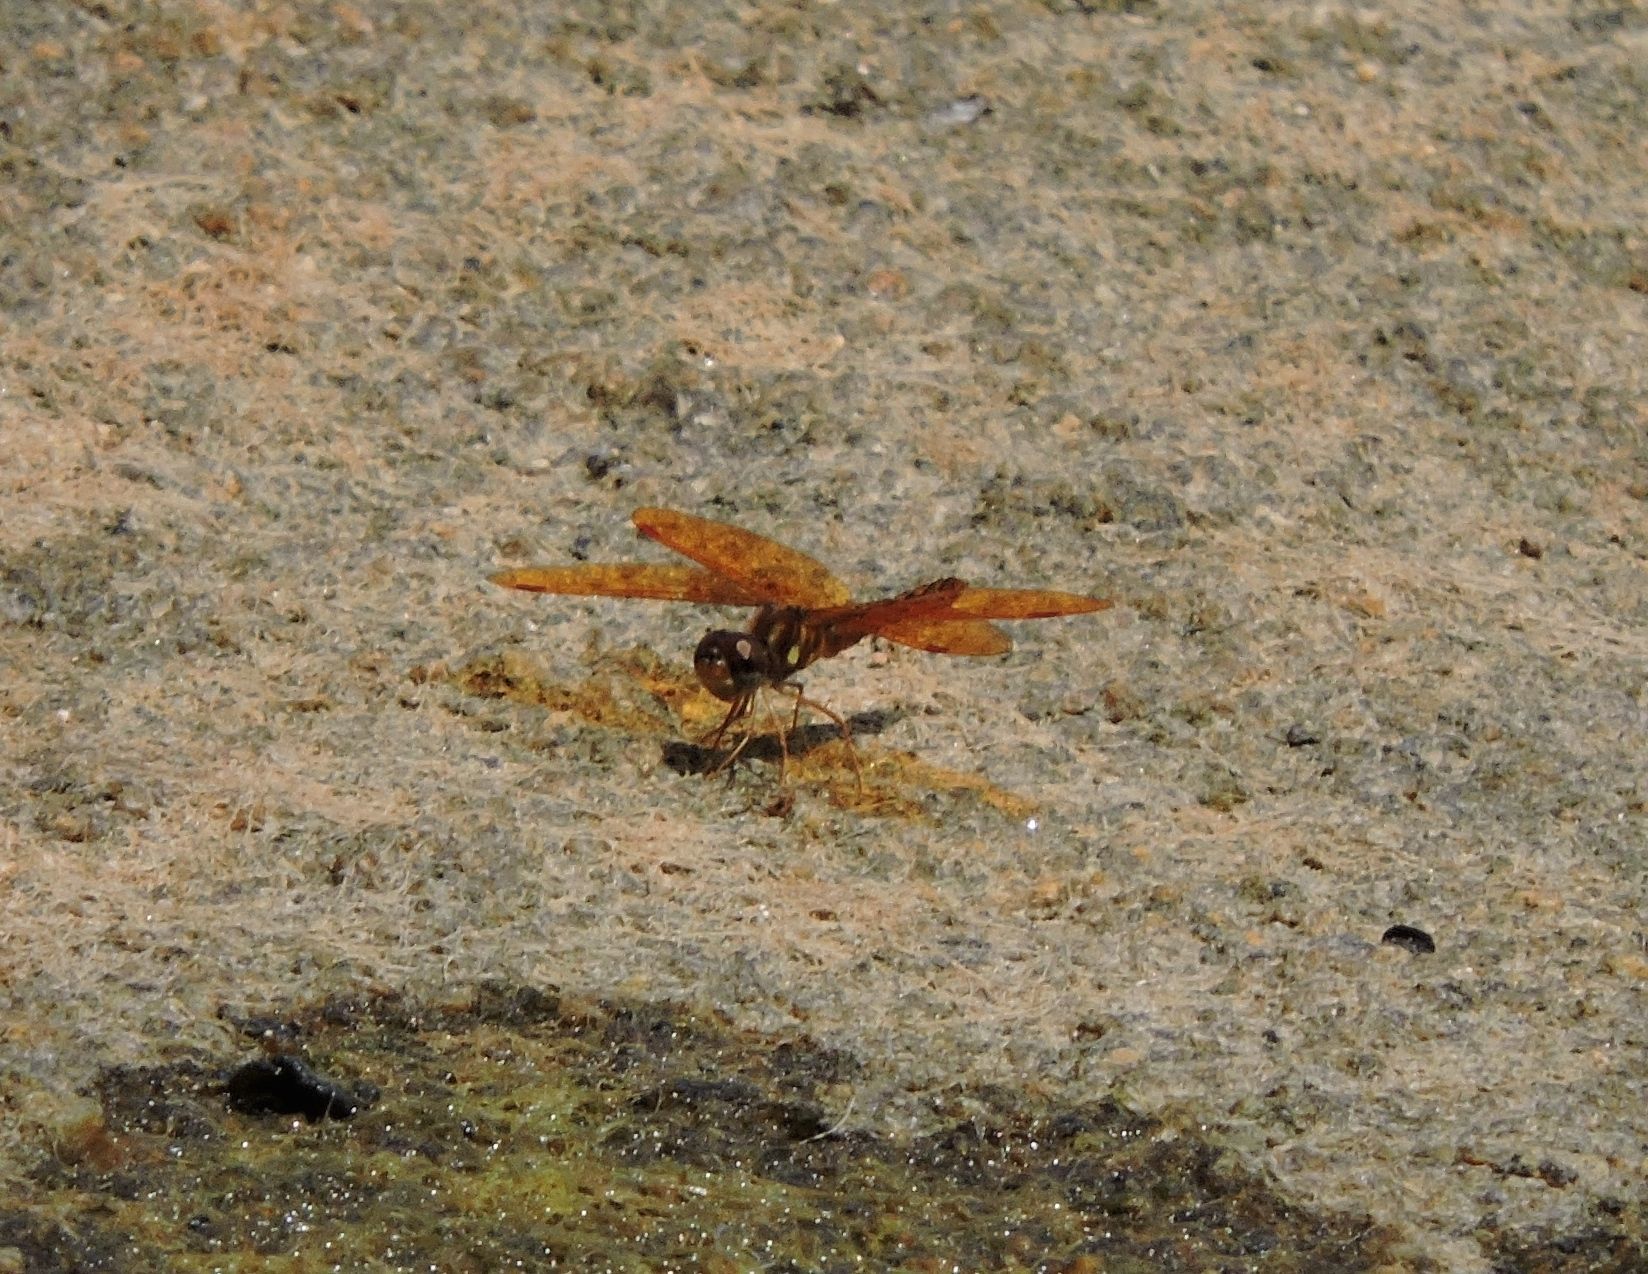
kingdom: Animalia
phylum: Arthropoda
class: Insecta
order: Odonata
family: Libellulidae
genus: Perithemis
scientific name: Perithemis tenera
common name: Eastern amberwing
